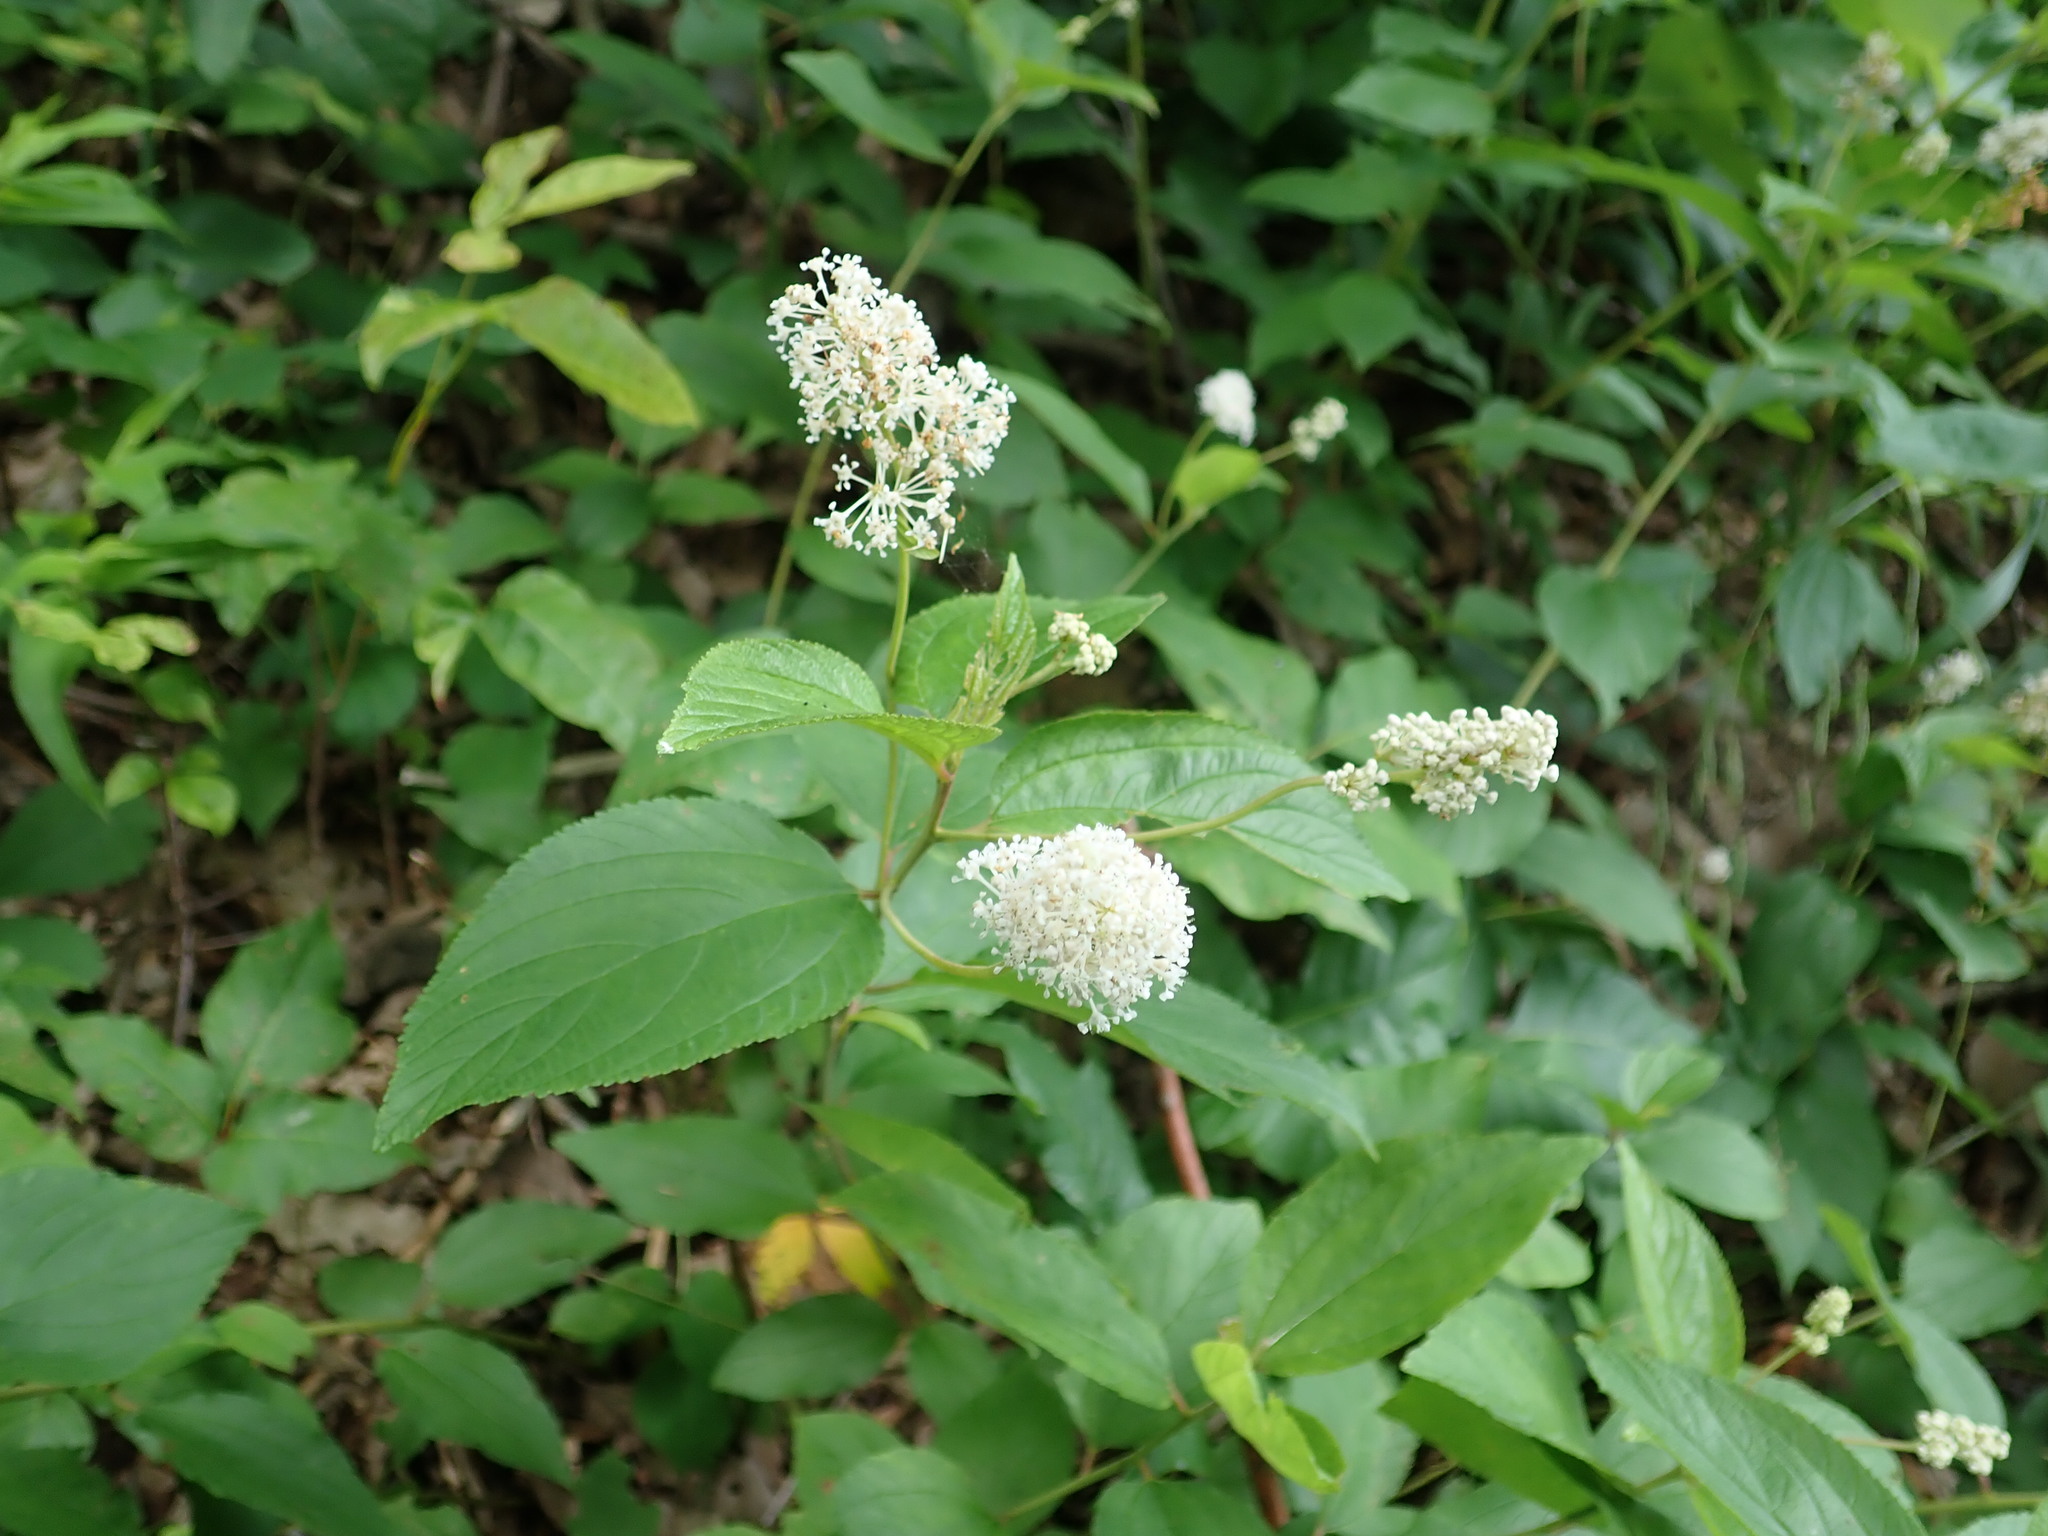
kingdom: Plantae
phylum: Tracheophyta
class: Magnoliopsida
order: Rosales
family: Rhamnaceae
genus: Ceanothus
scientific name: Ceanothus americanus
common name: Redroot
